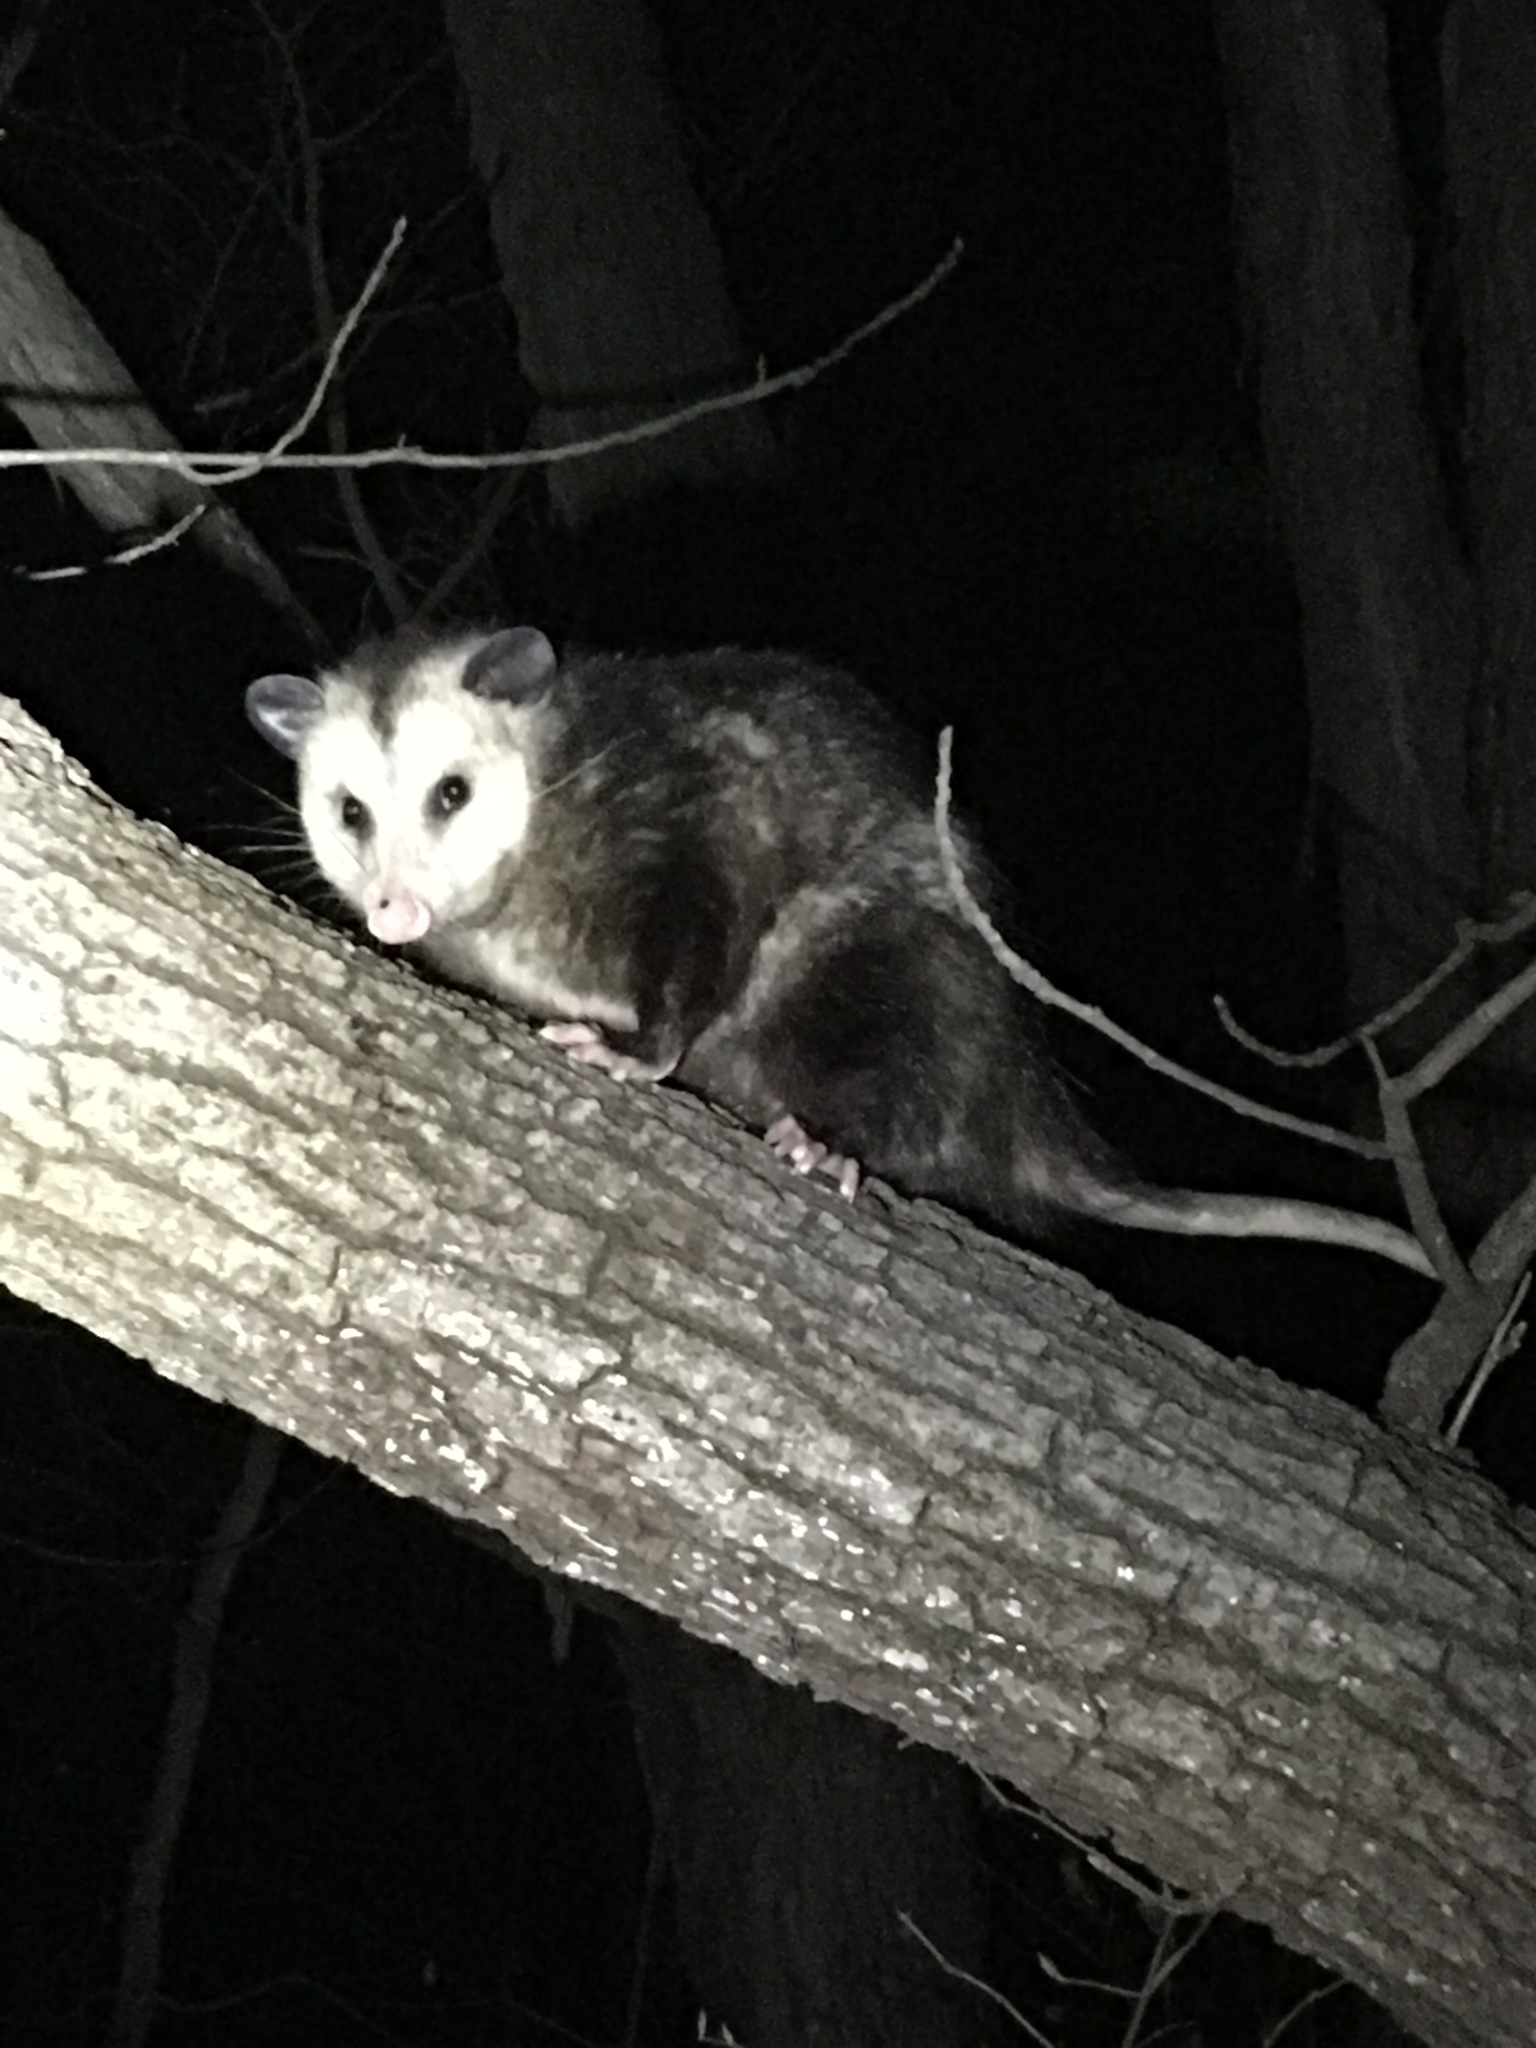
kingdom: Animalia
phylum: Chordata
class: Mammalia
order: Didelphimorphia
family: Didelphidae
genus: Didelphis
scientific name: Didelphis virginiana
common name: Virginia opossum
